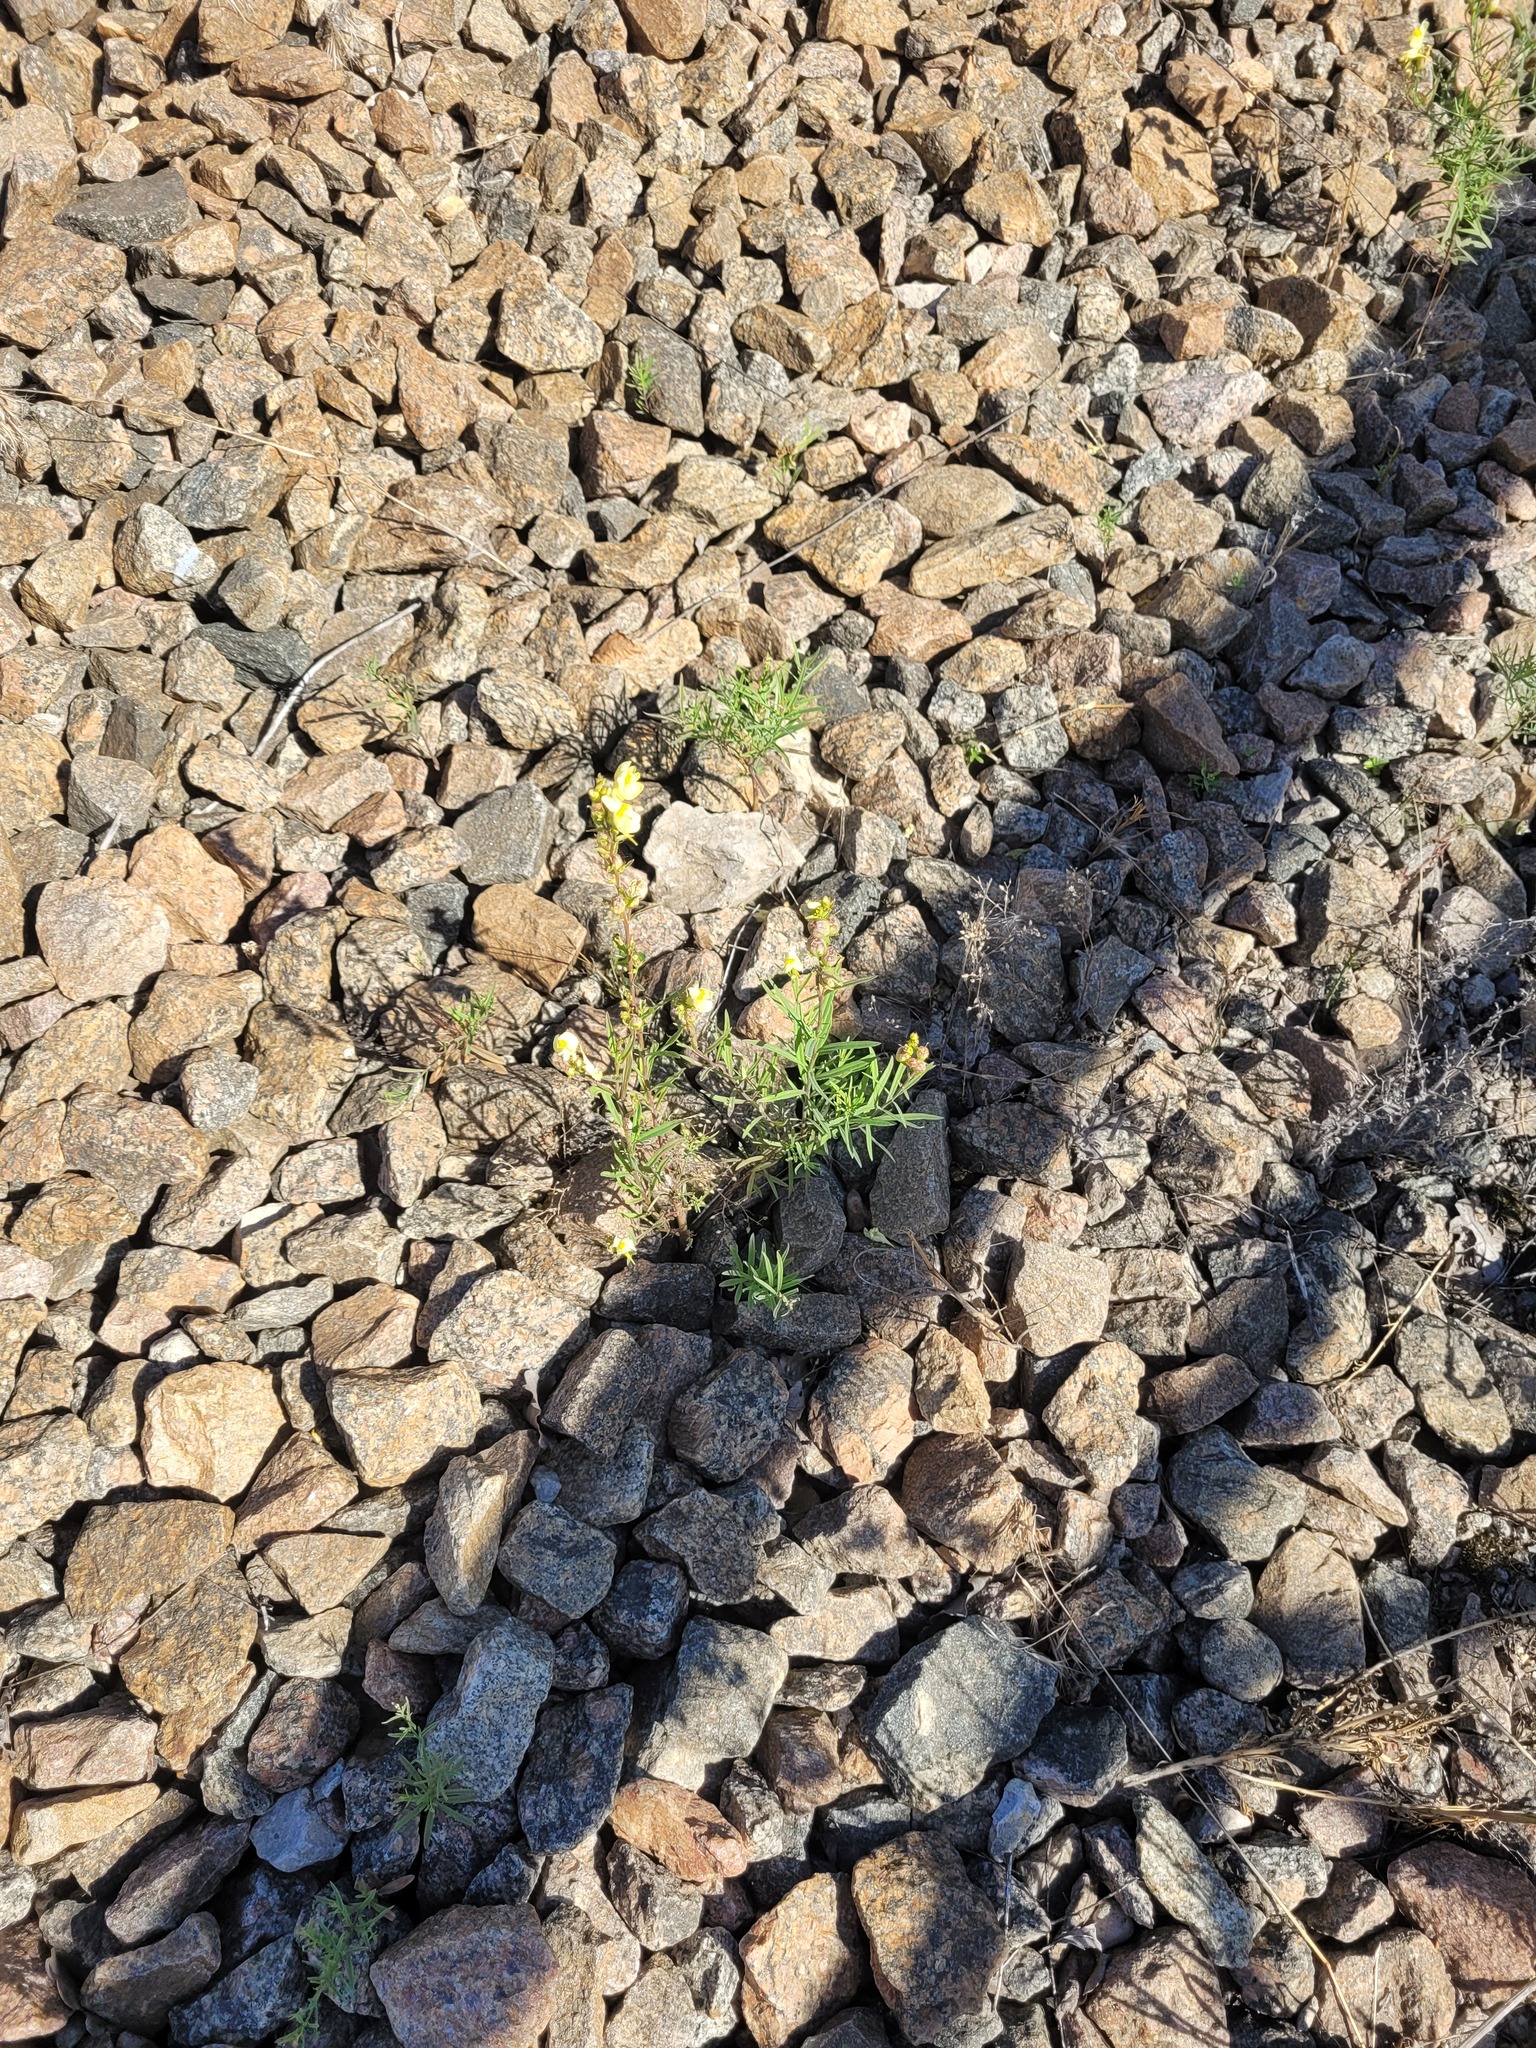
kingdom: Plantae
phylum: Tracheophyta
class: Magnoliopsida
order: Lamiales
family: Plantaginaceae
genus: Linaria
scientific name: Linaria vulgaris
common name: Butter and eggs
